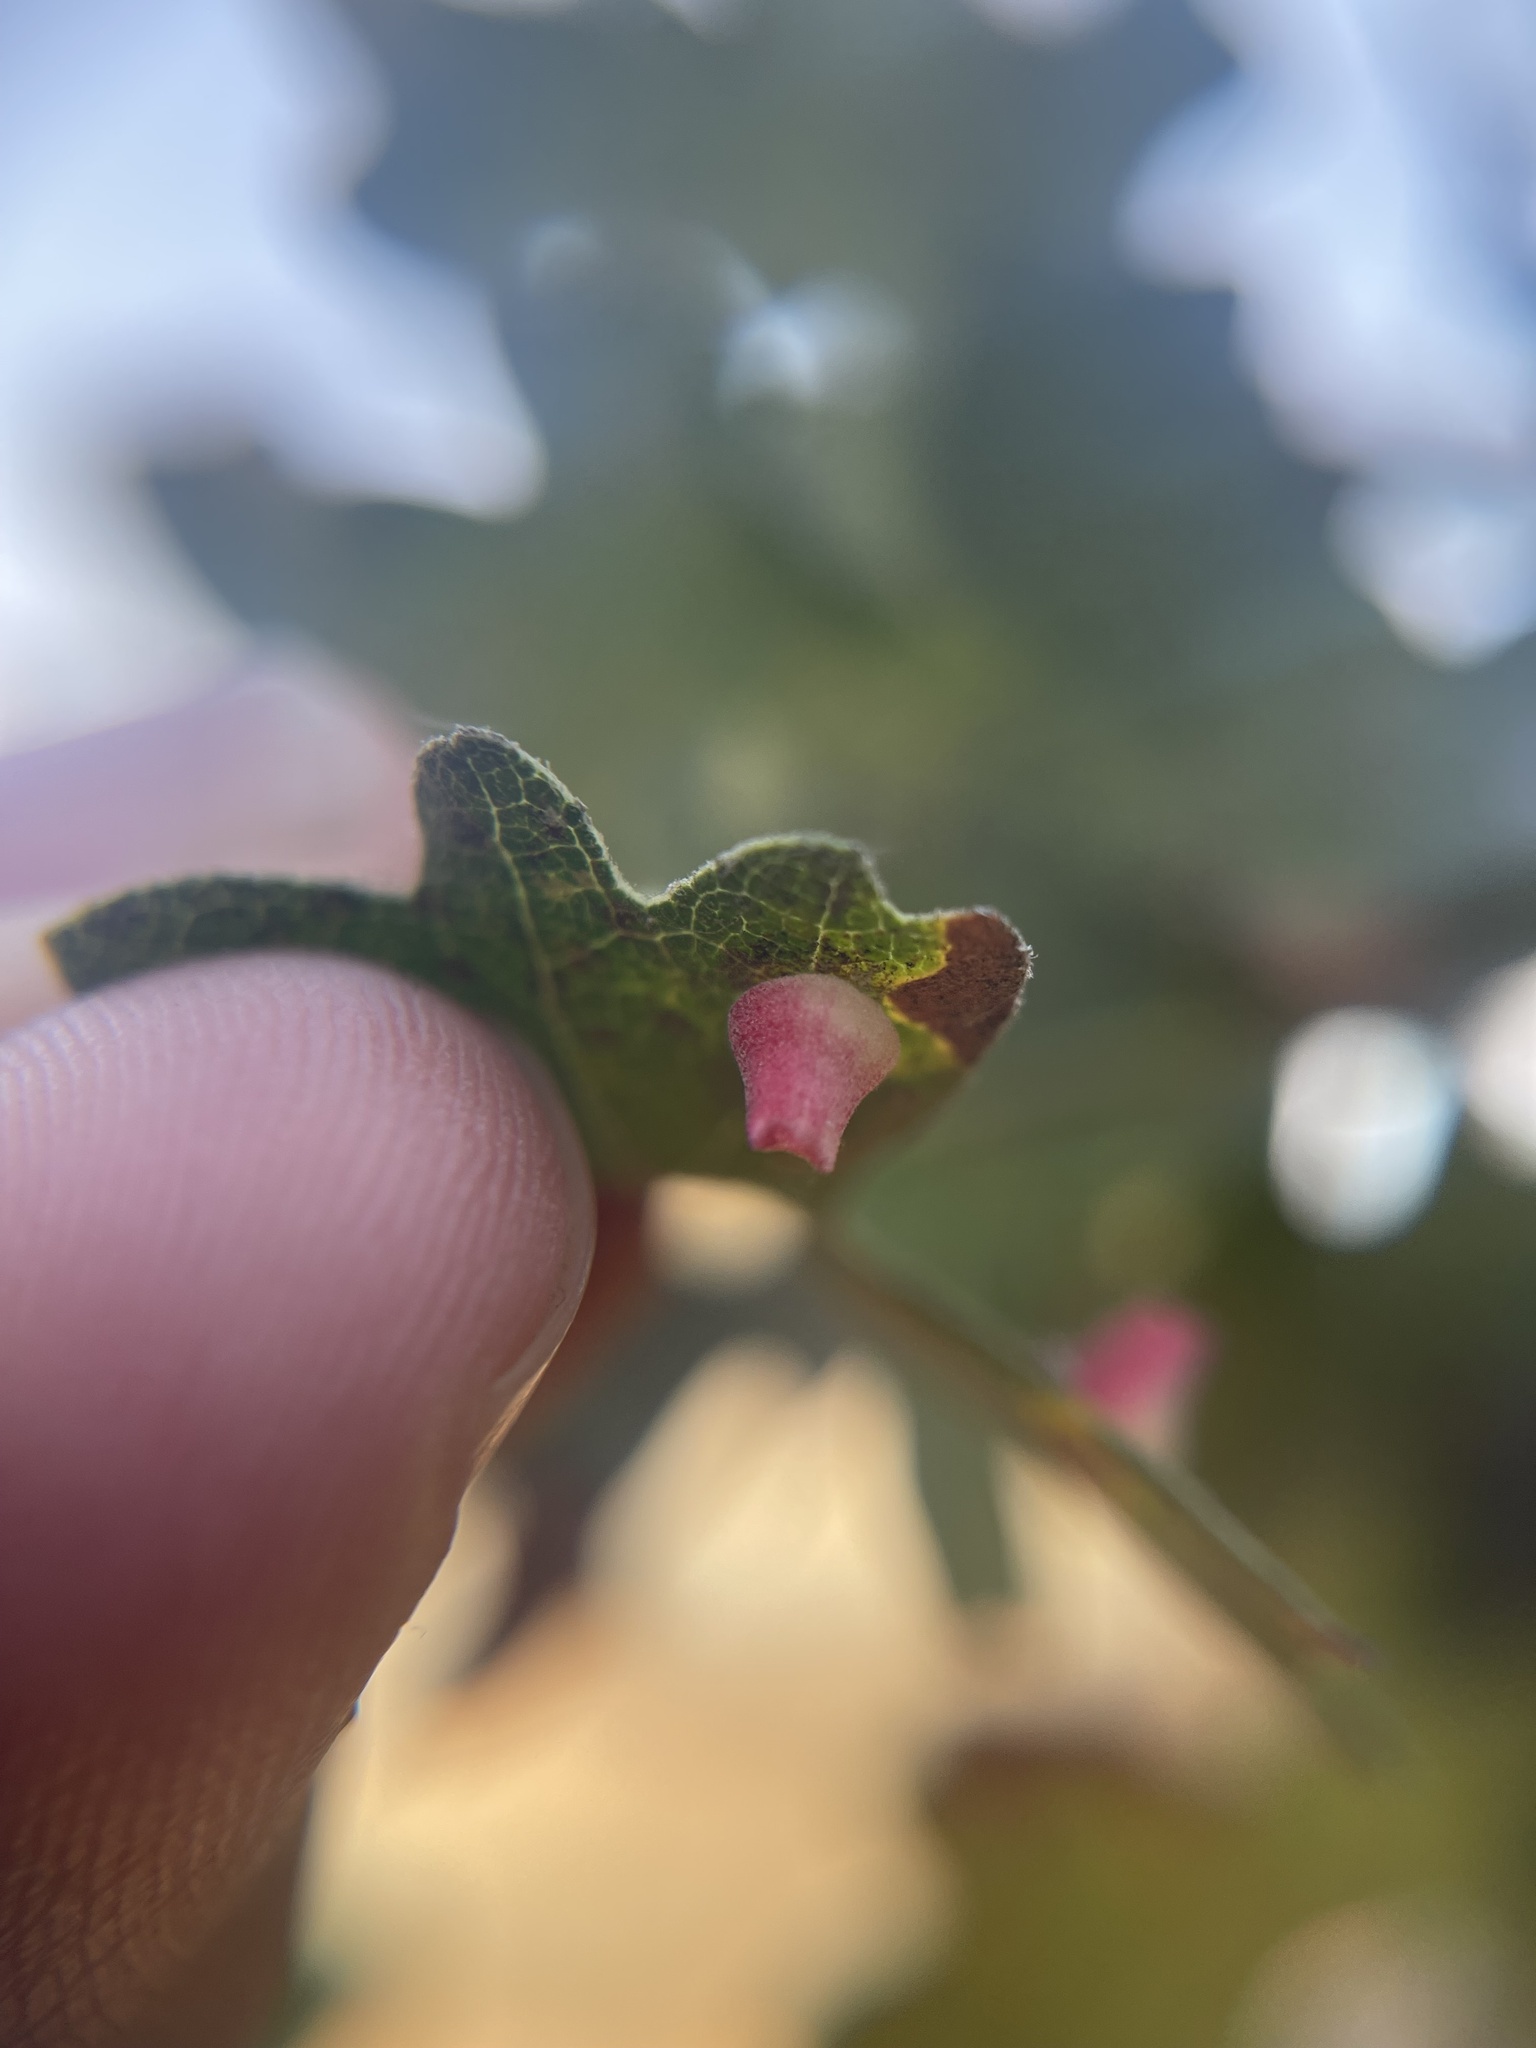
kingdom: Animalia
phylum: Arthropoda
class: Insecta
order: Hymenoptera
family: Cynipidae
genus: Andricus
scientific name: Andricus
